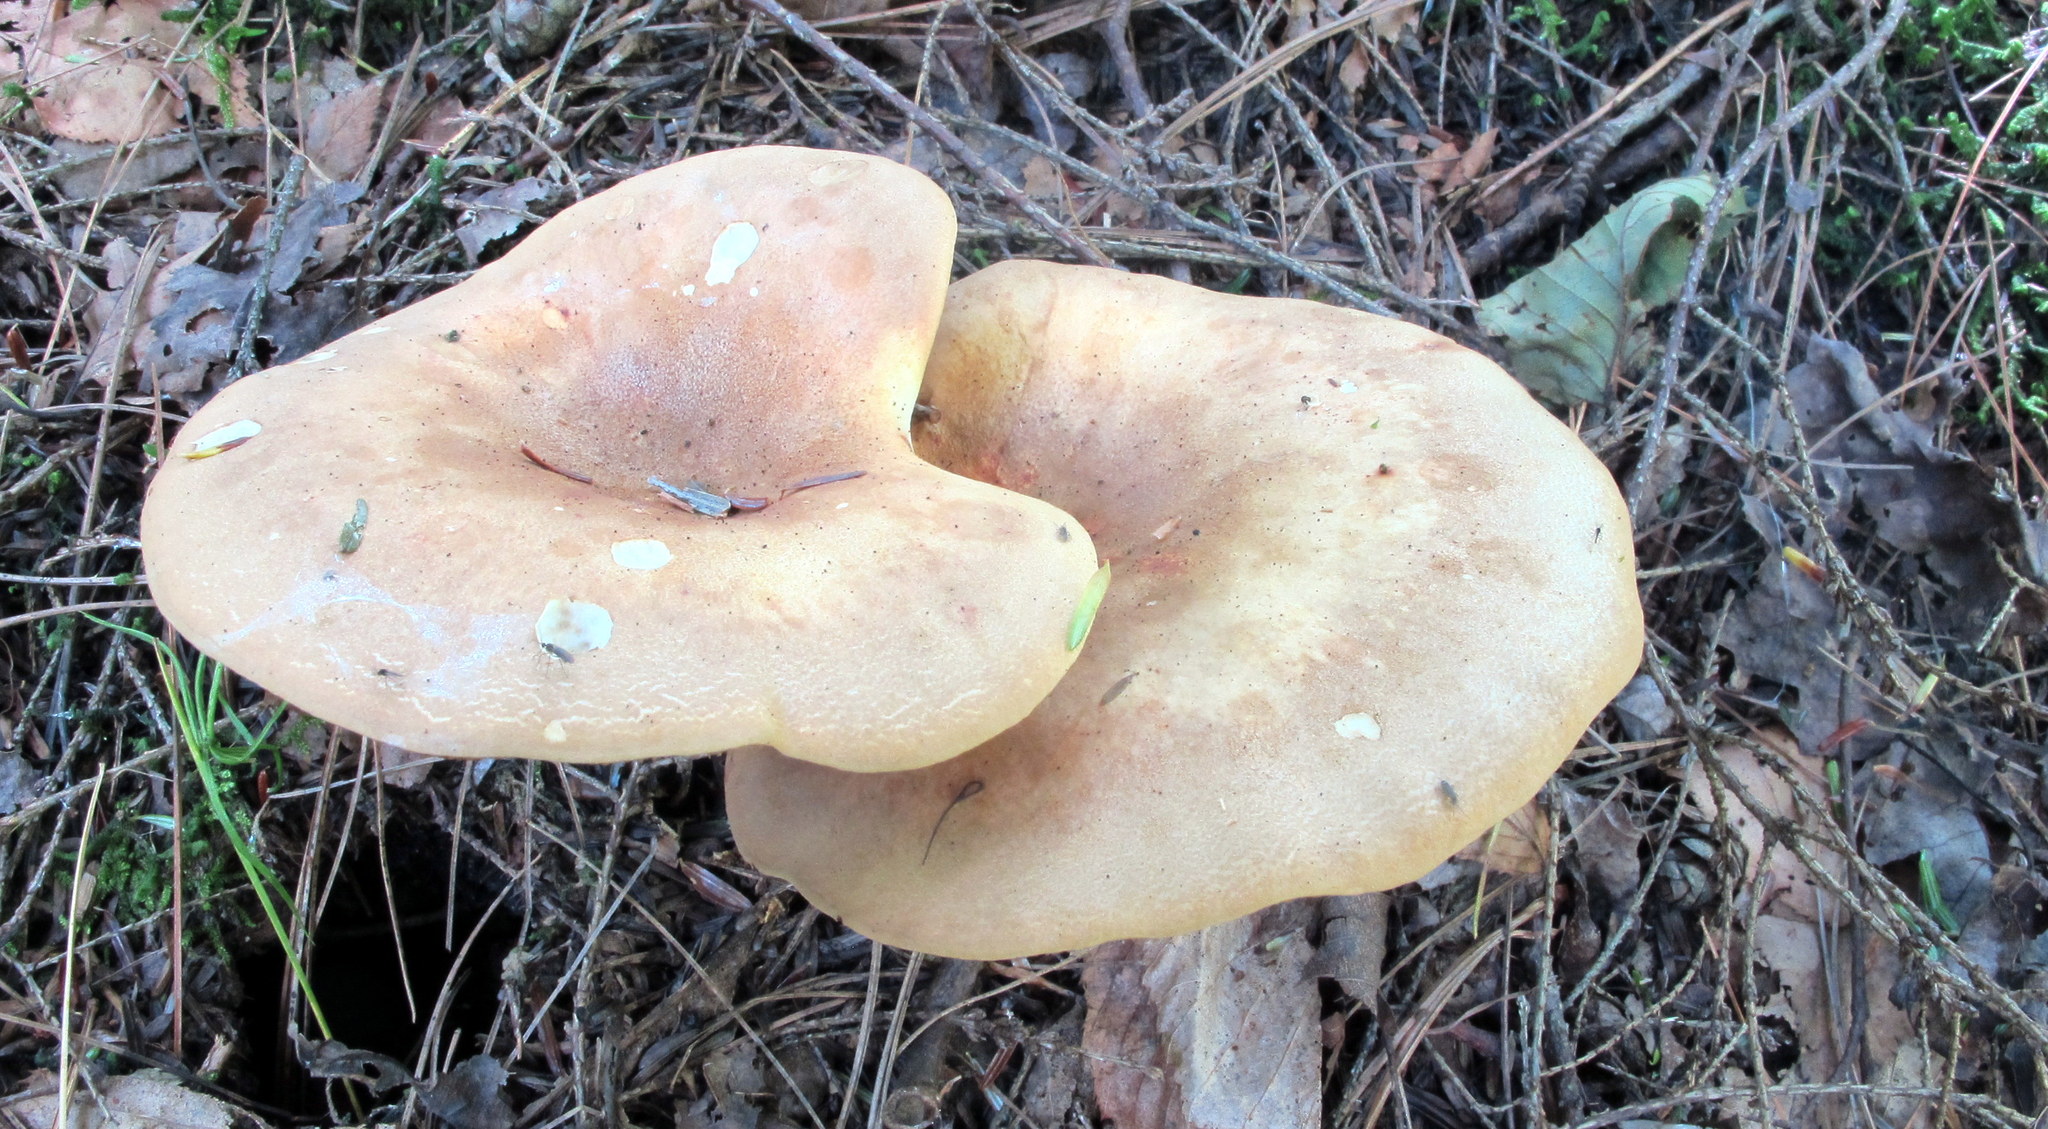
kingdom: Fungi
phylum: Basidiomycota
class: Agaricomycetes
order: Boletales
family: Tapinellaceae
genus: Tapinella
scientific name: Tapinella atrotomentosa
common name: Velvet rollrim
